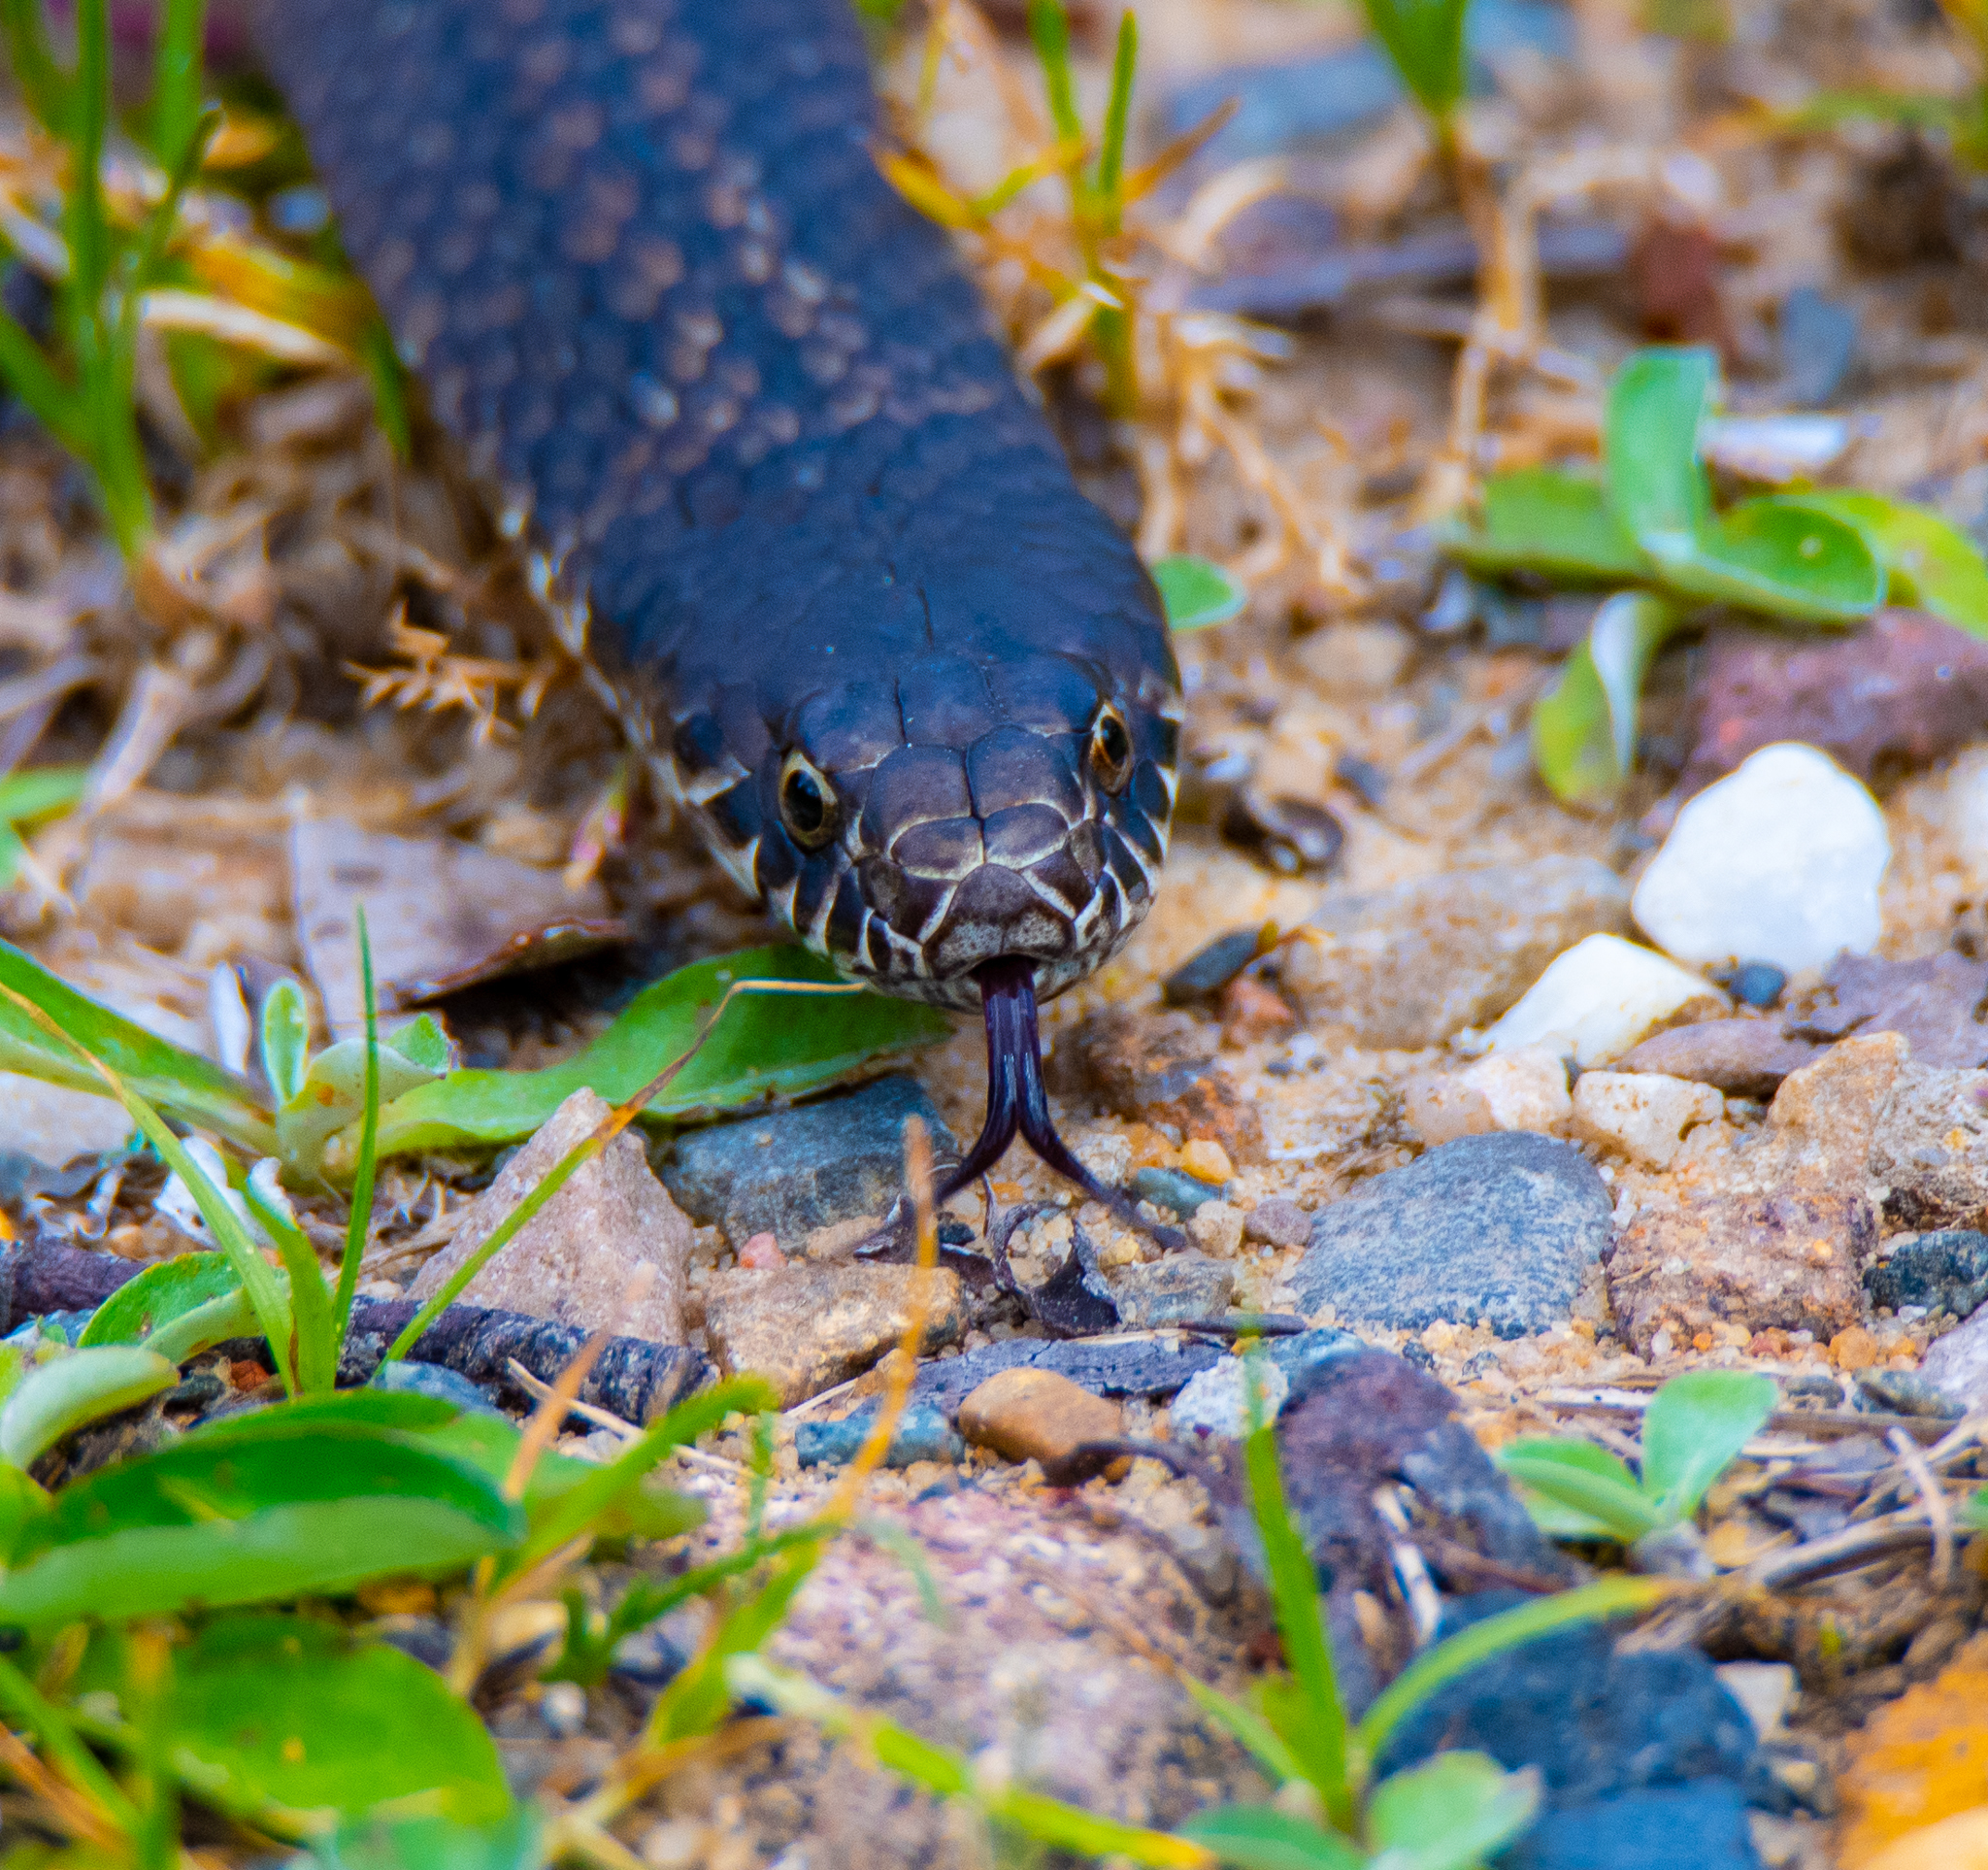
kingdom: Animalia
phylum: Chordata
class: Squamata
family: Elapidae
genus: Austrelaps
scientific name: Austrelaps ramsayi
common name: Highlands copperhead
